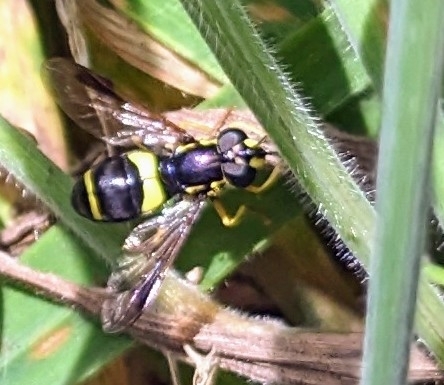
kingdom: Animalia
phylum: Arthropoda
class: Insecta
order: Diptera
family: Syrphidae
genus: Chrysotoxum
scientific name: Chrysotoxum bicincta
